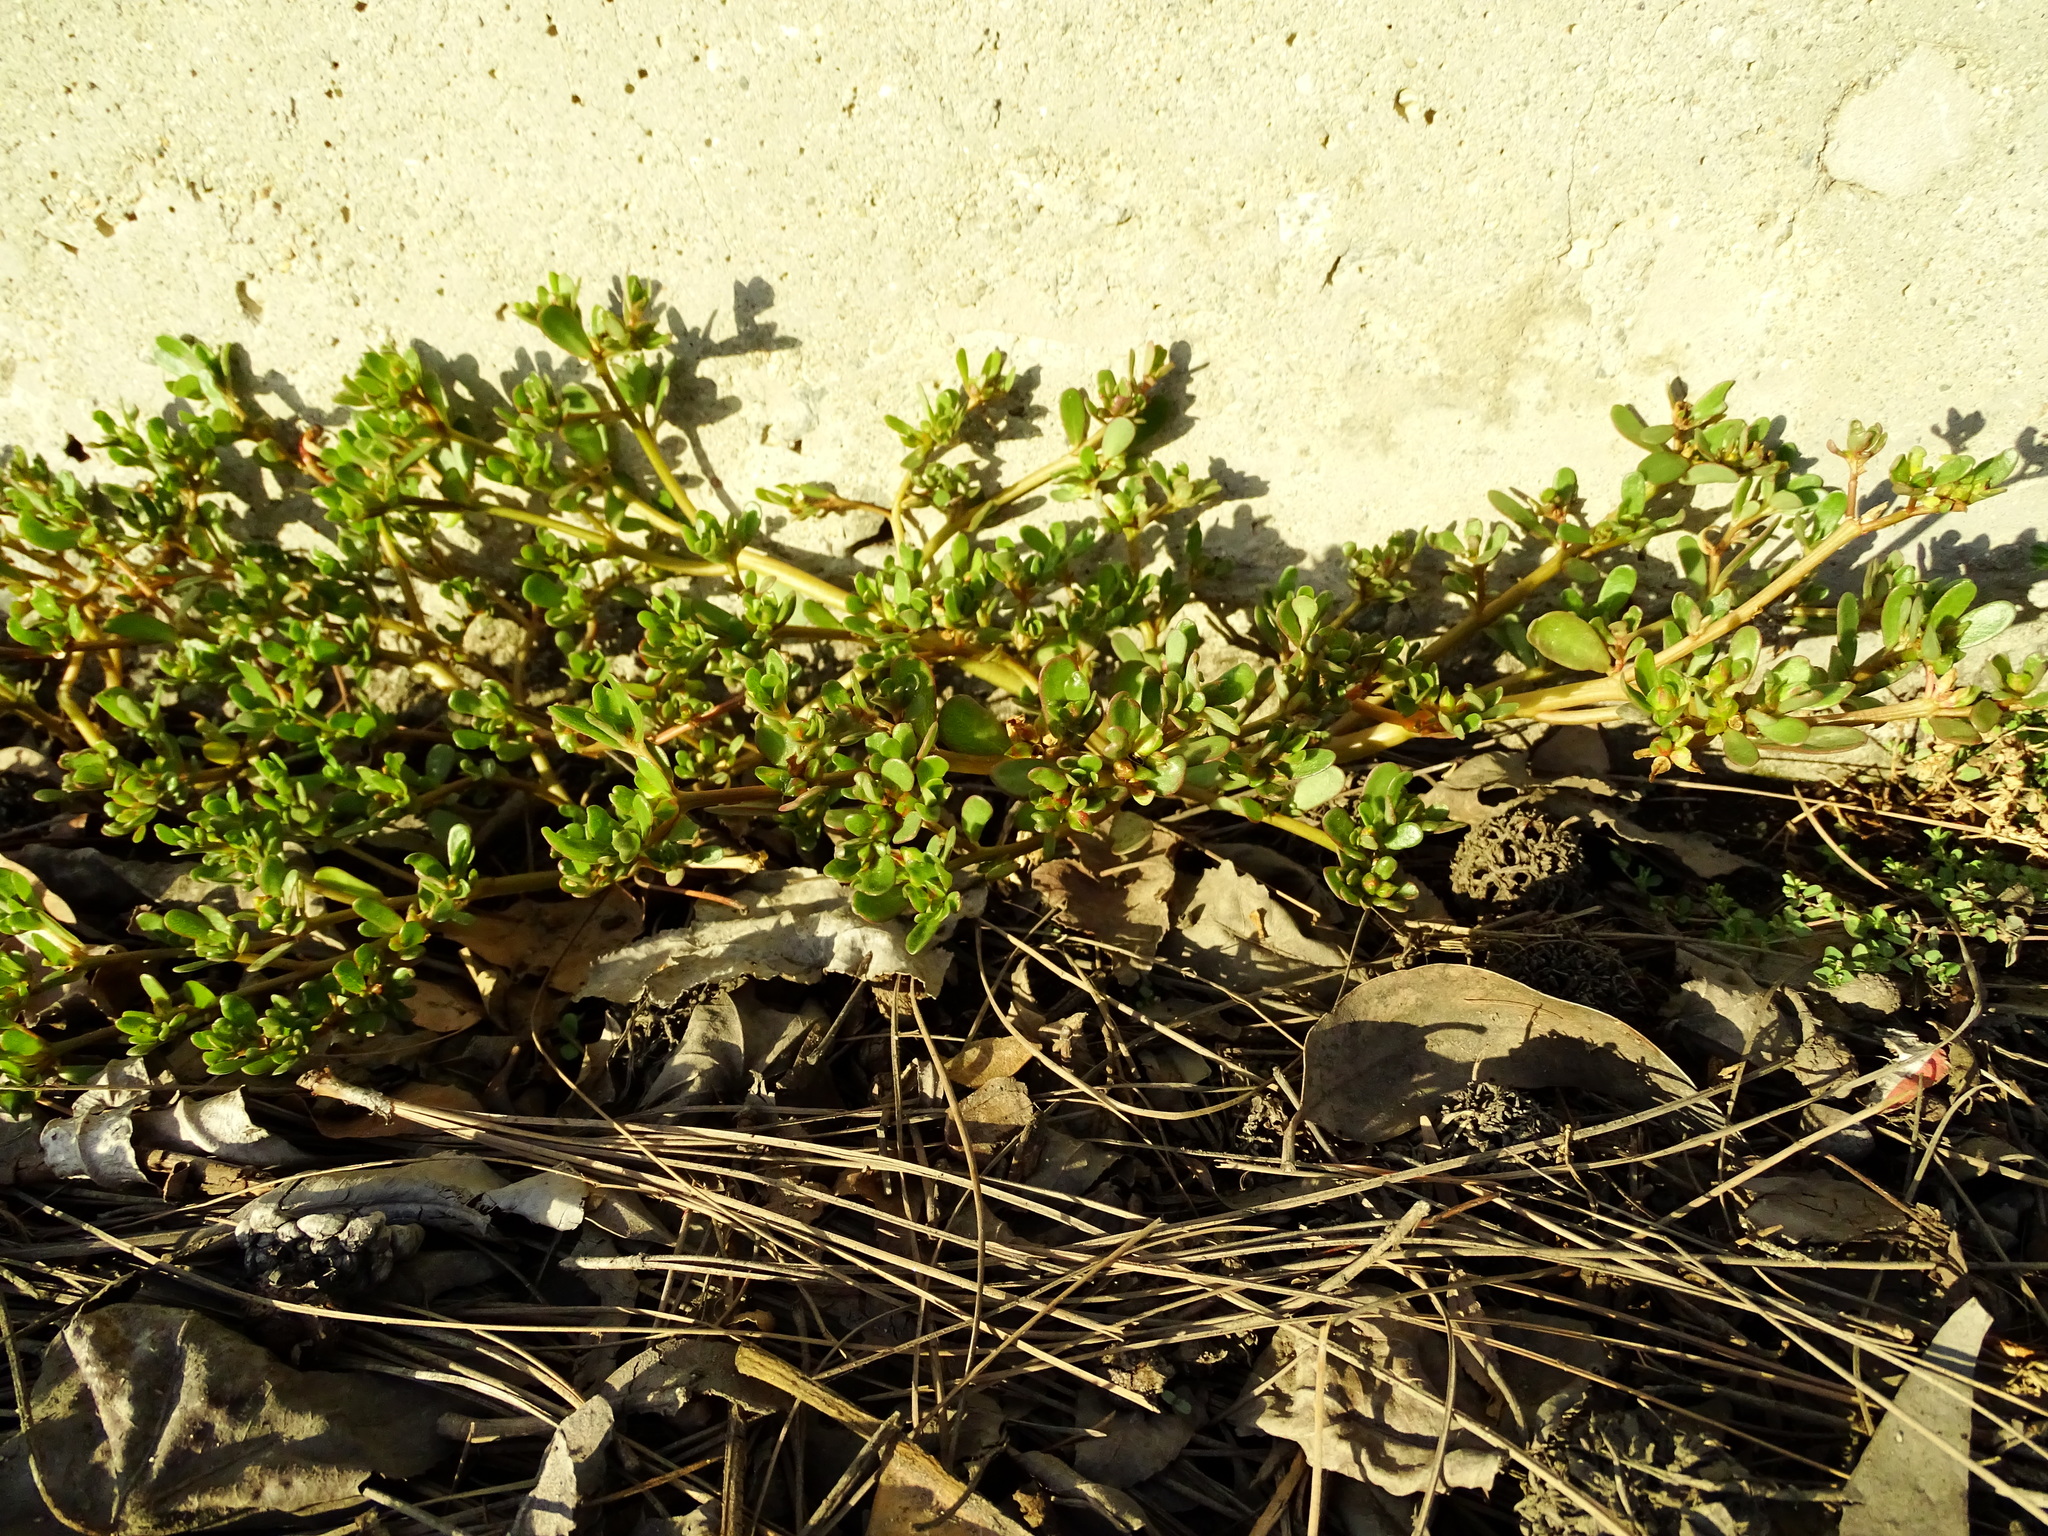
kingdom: Plantae
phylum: Tracheophyta
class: Magnoliopsida
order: Caryophyllales
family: Portulacaceae
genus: Portulaca
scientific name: Portulaca oleracea
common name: Common purslane
